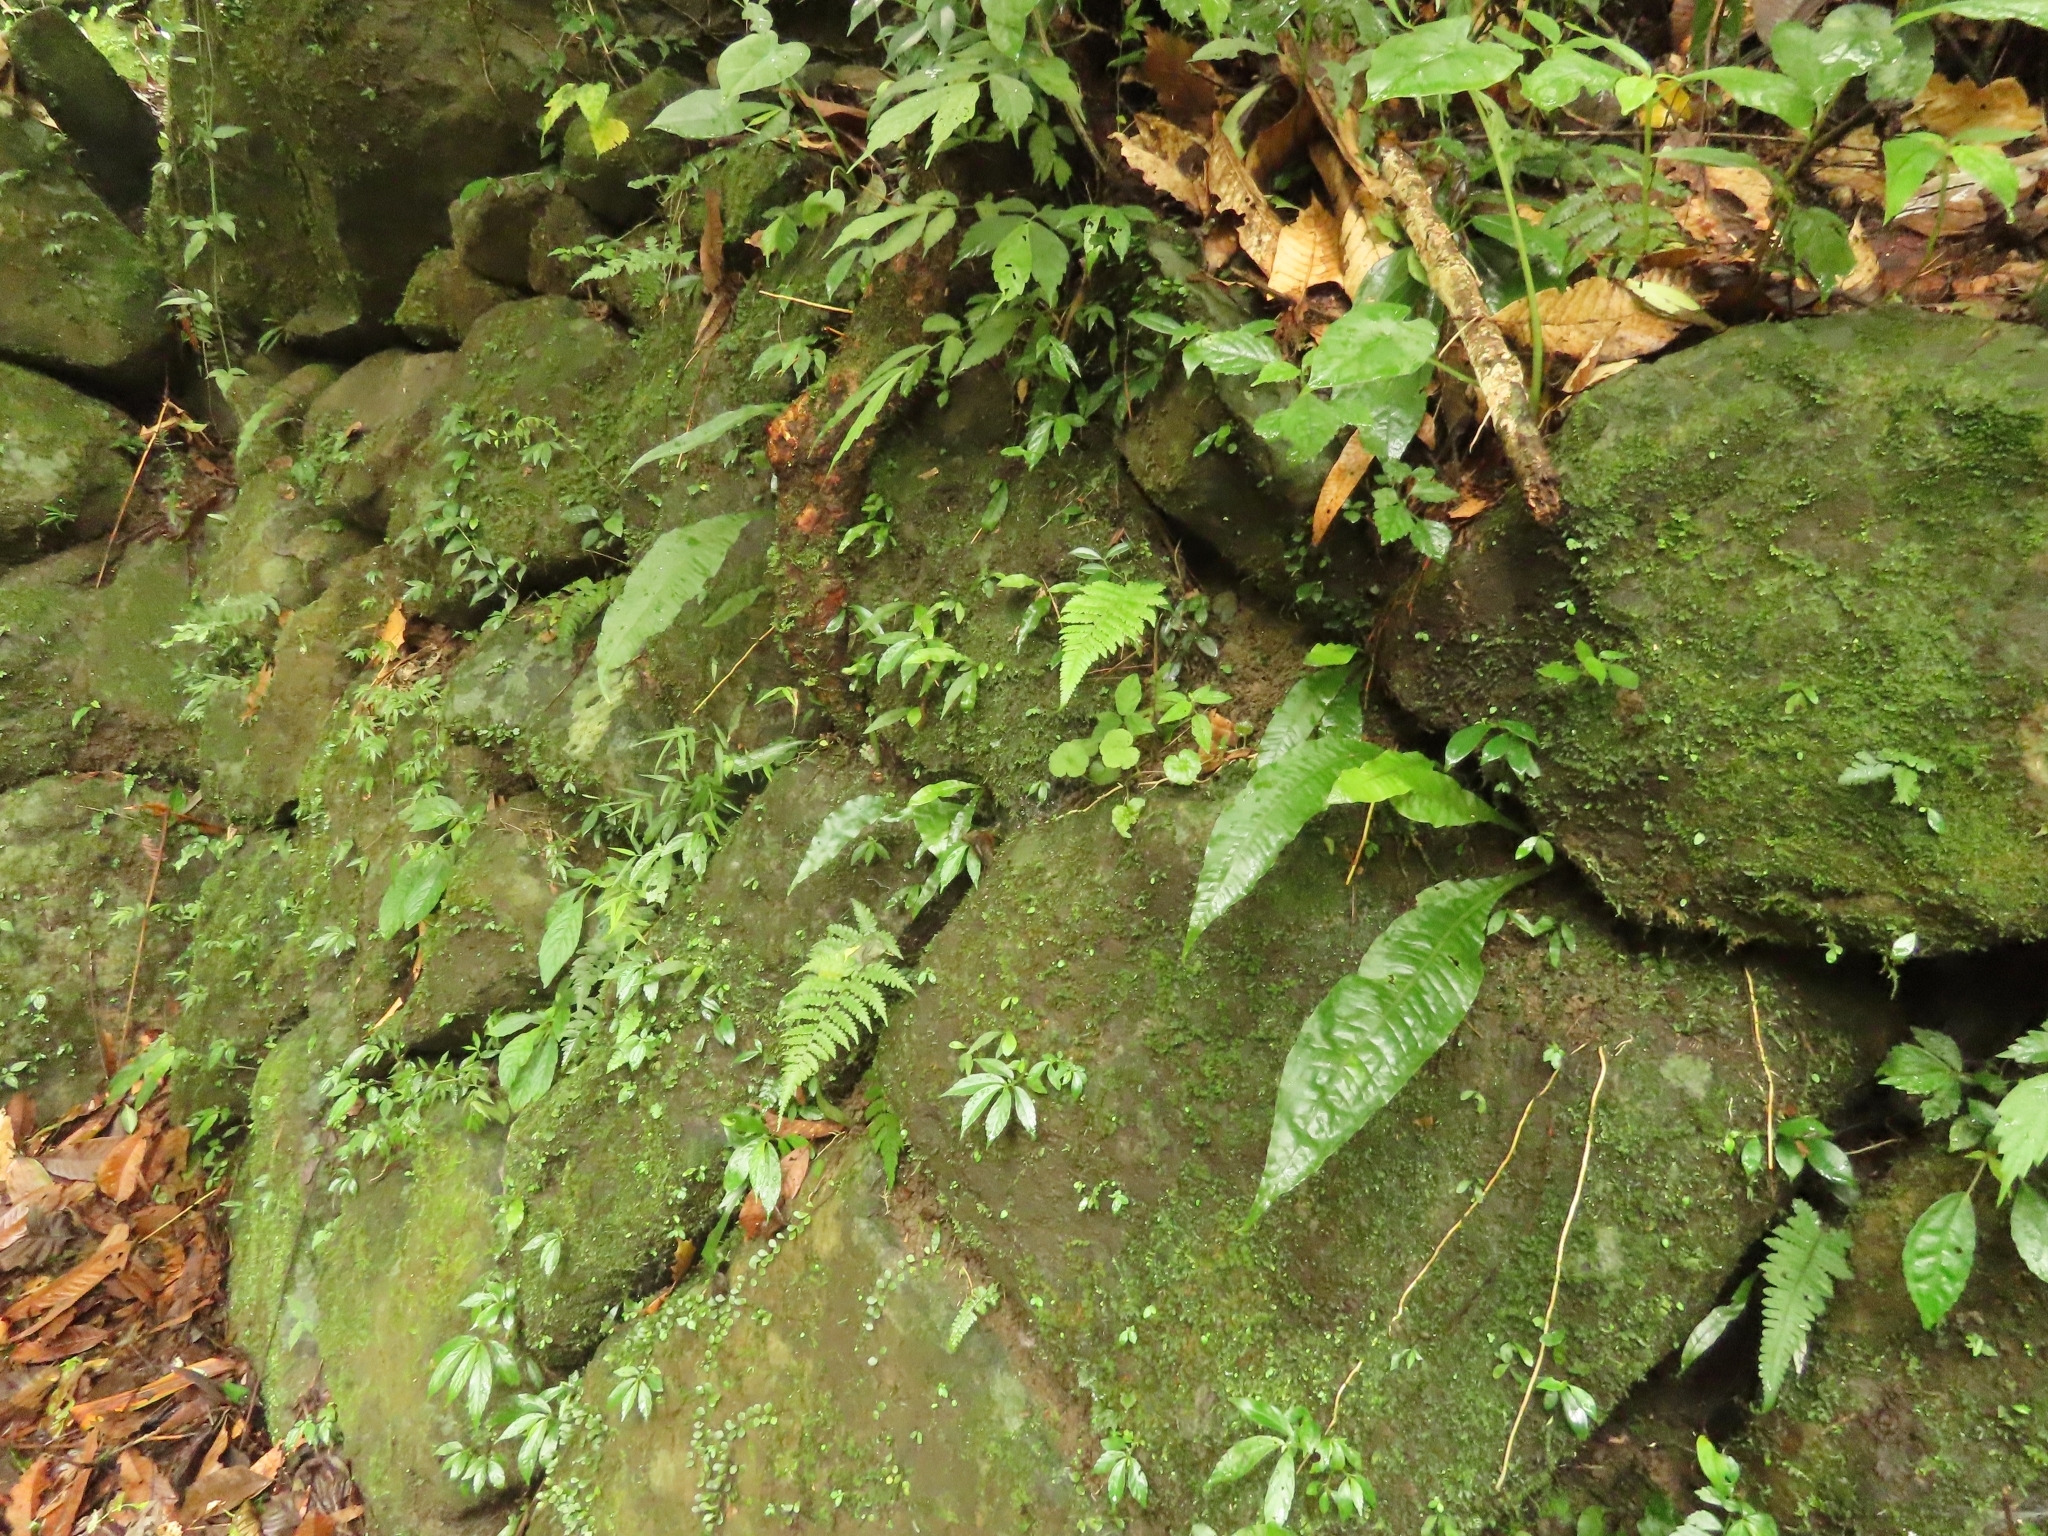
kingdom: Plantae
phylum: Tracheophyta
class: Polypodiopsida
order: Polypodiales
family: Polypodiaceae
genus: Bosmania
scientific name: Bosmania membranacea
